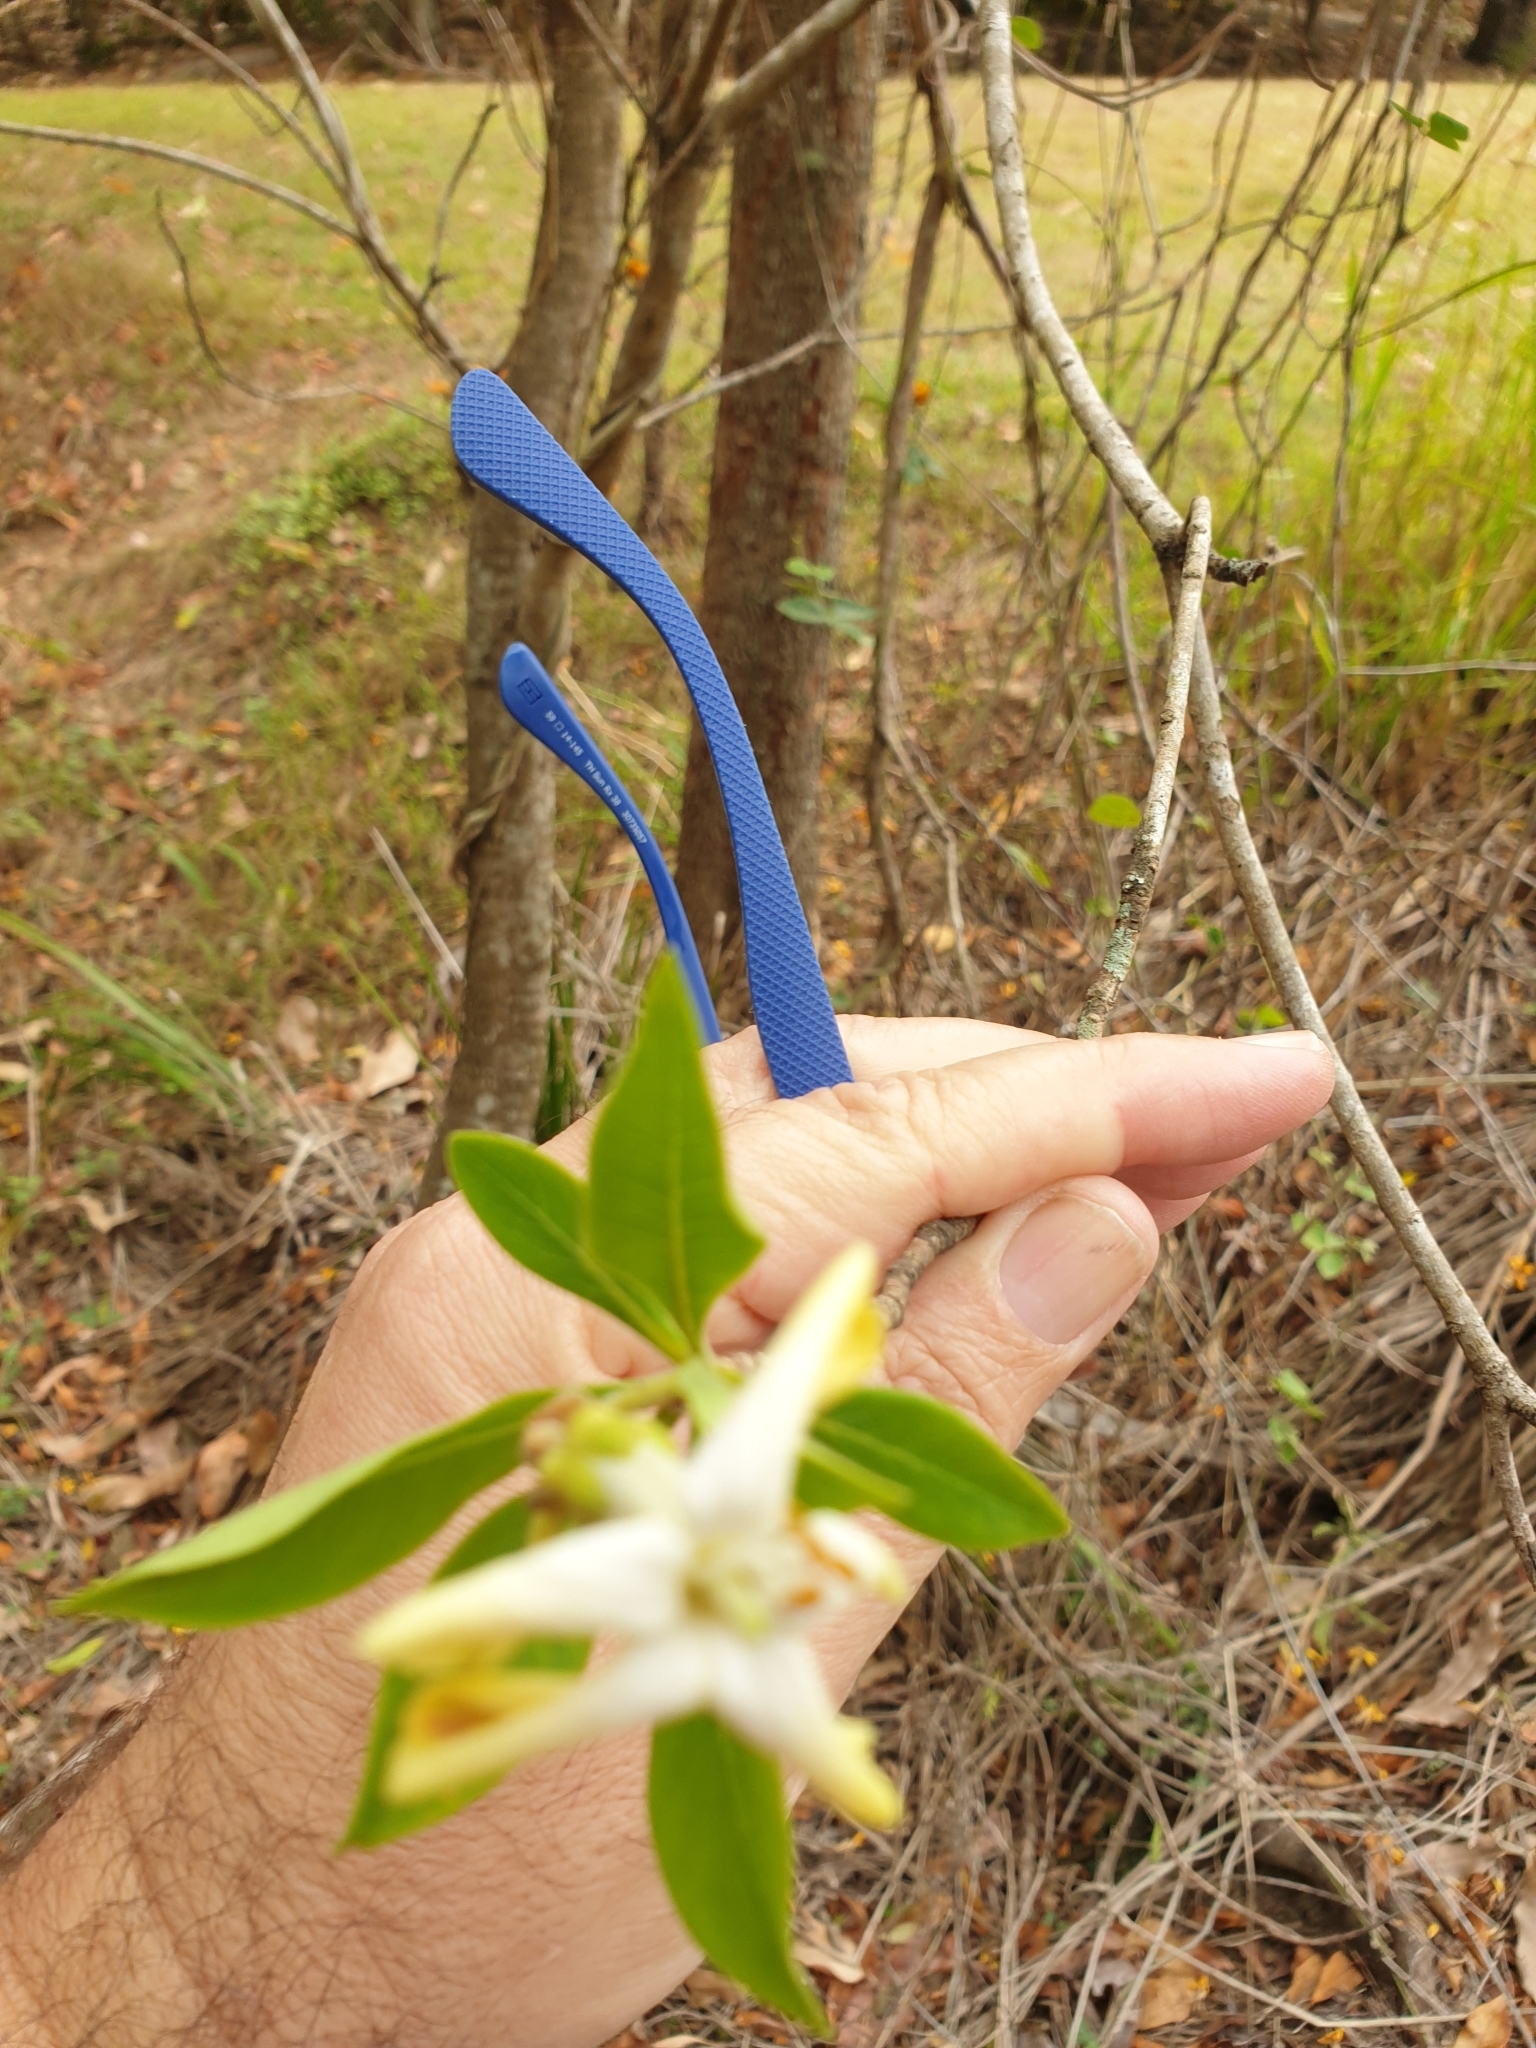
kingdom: Plantae
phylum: Tracheophyta
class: Magnoliopsida
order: Apiales
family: Pittosporaceae
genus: Hymenosporum
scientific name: Hymenosporum flavum
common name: Native frangipani
